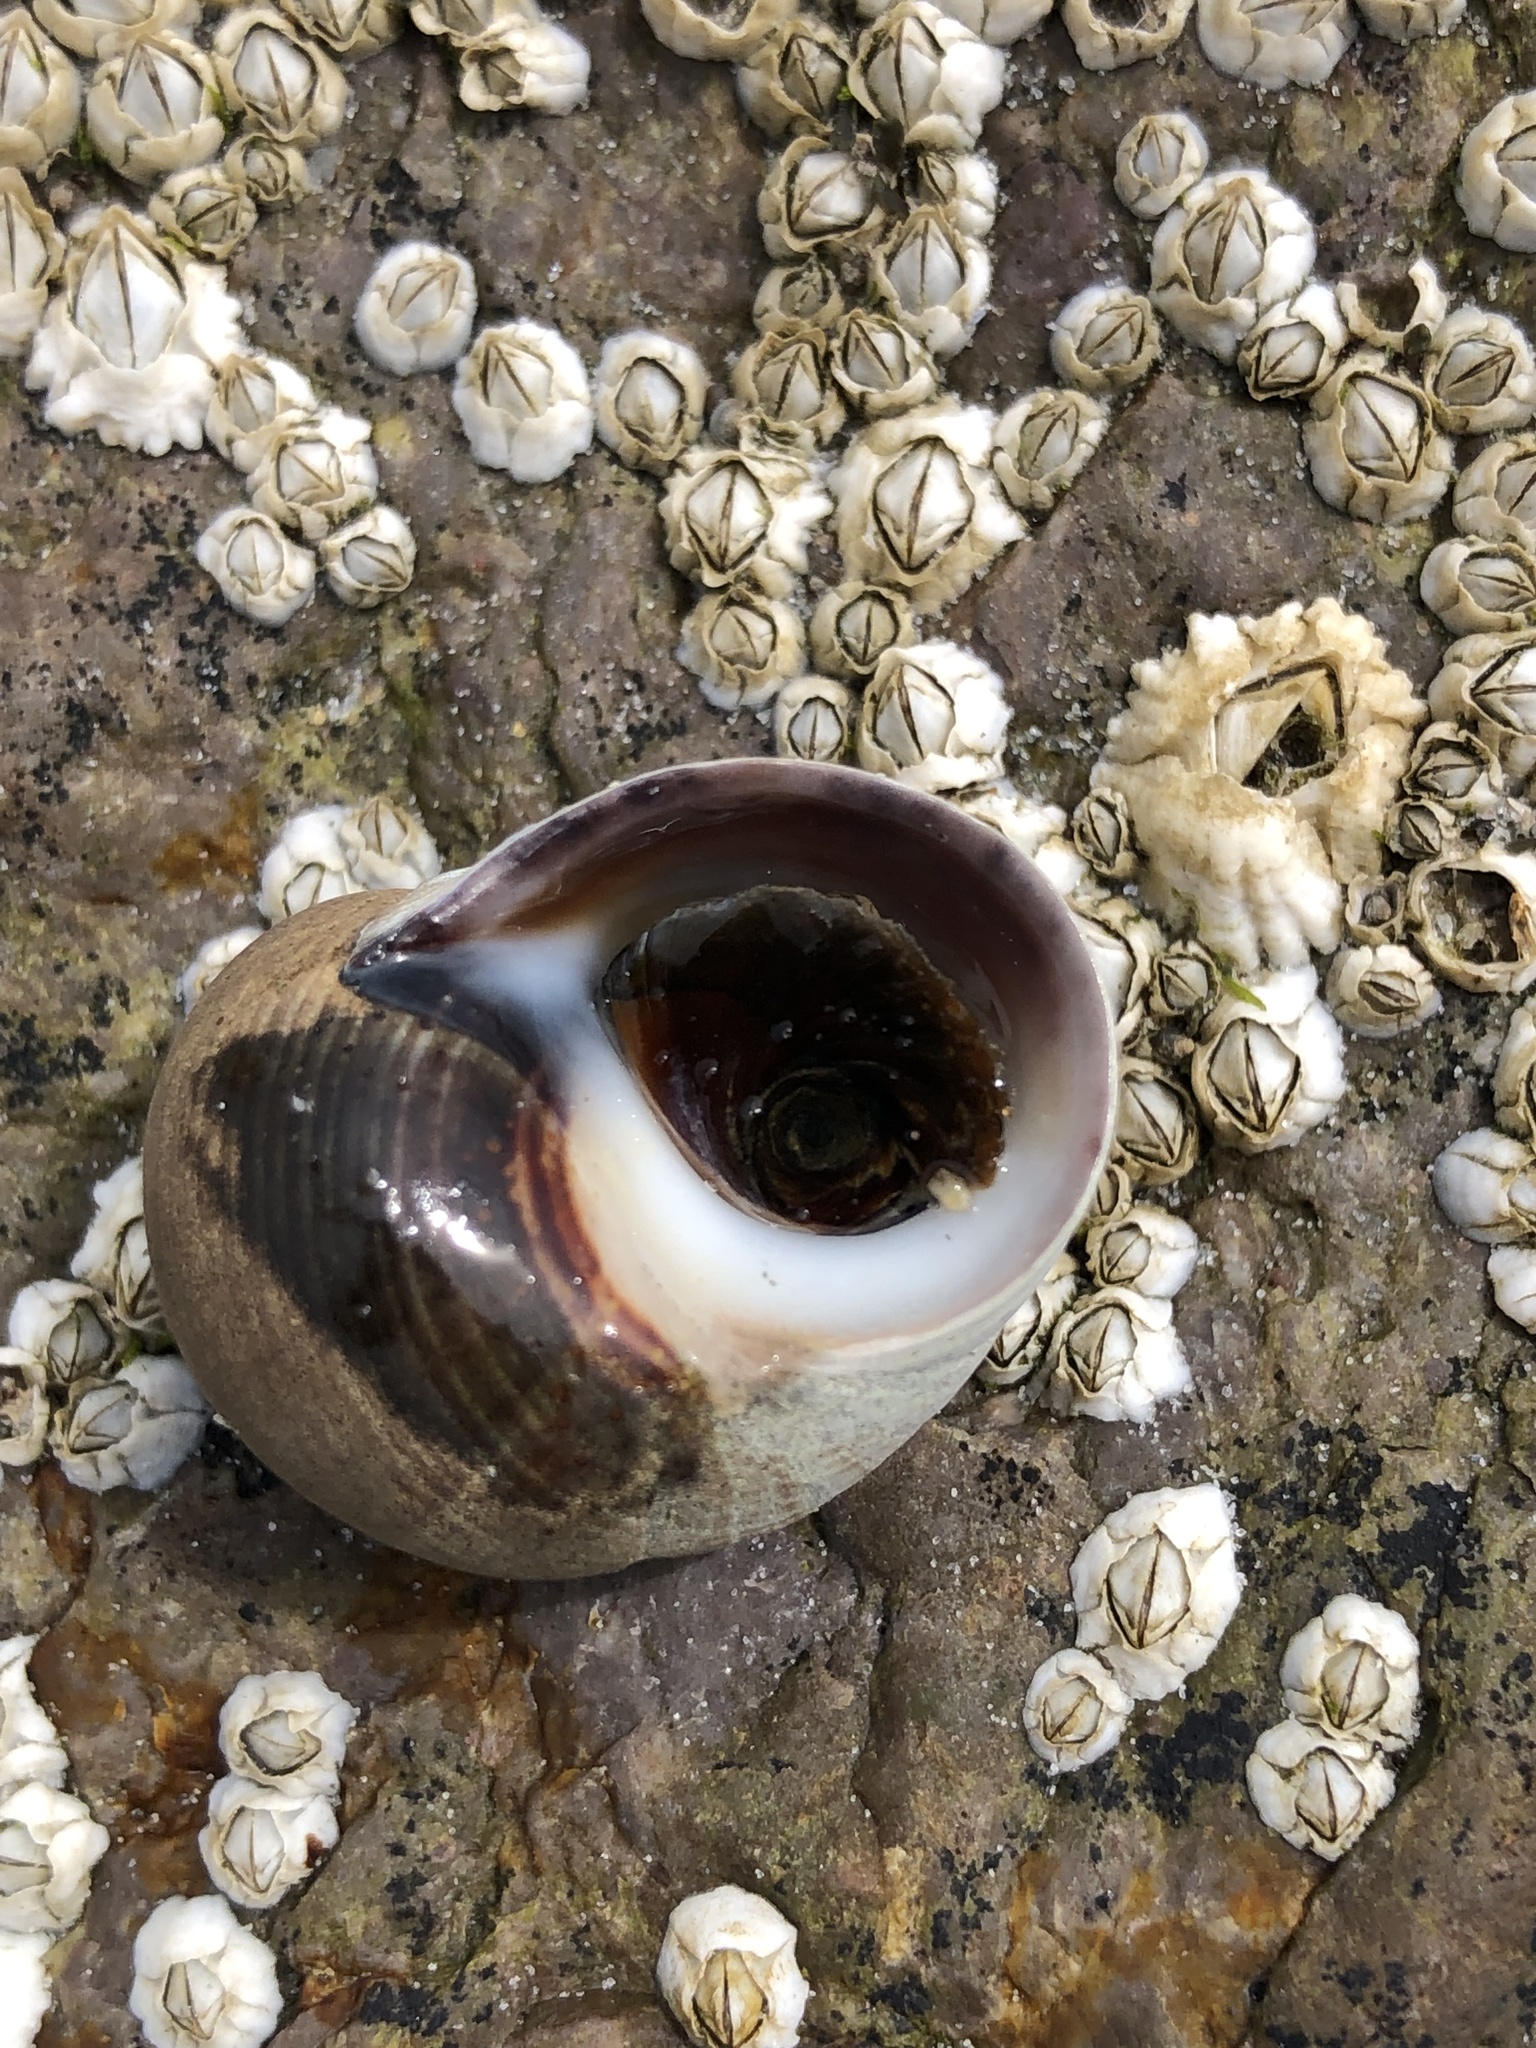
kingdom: Animalia
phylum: Mollusca
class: Gastropoda
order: Littorinimorpha
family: Littorinidae
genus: Littorina
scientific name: Littorina littorea
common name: Common periwinkle
